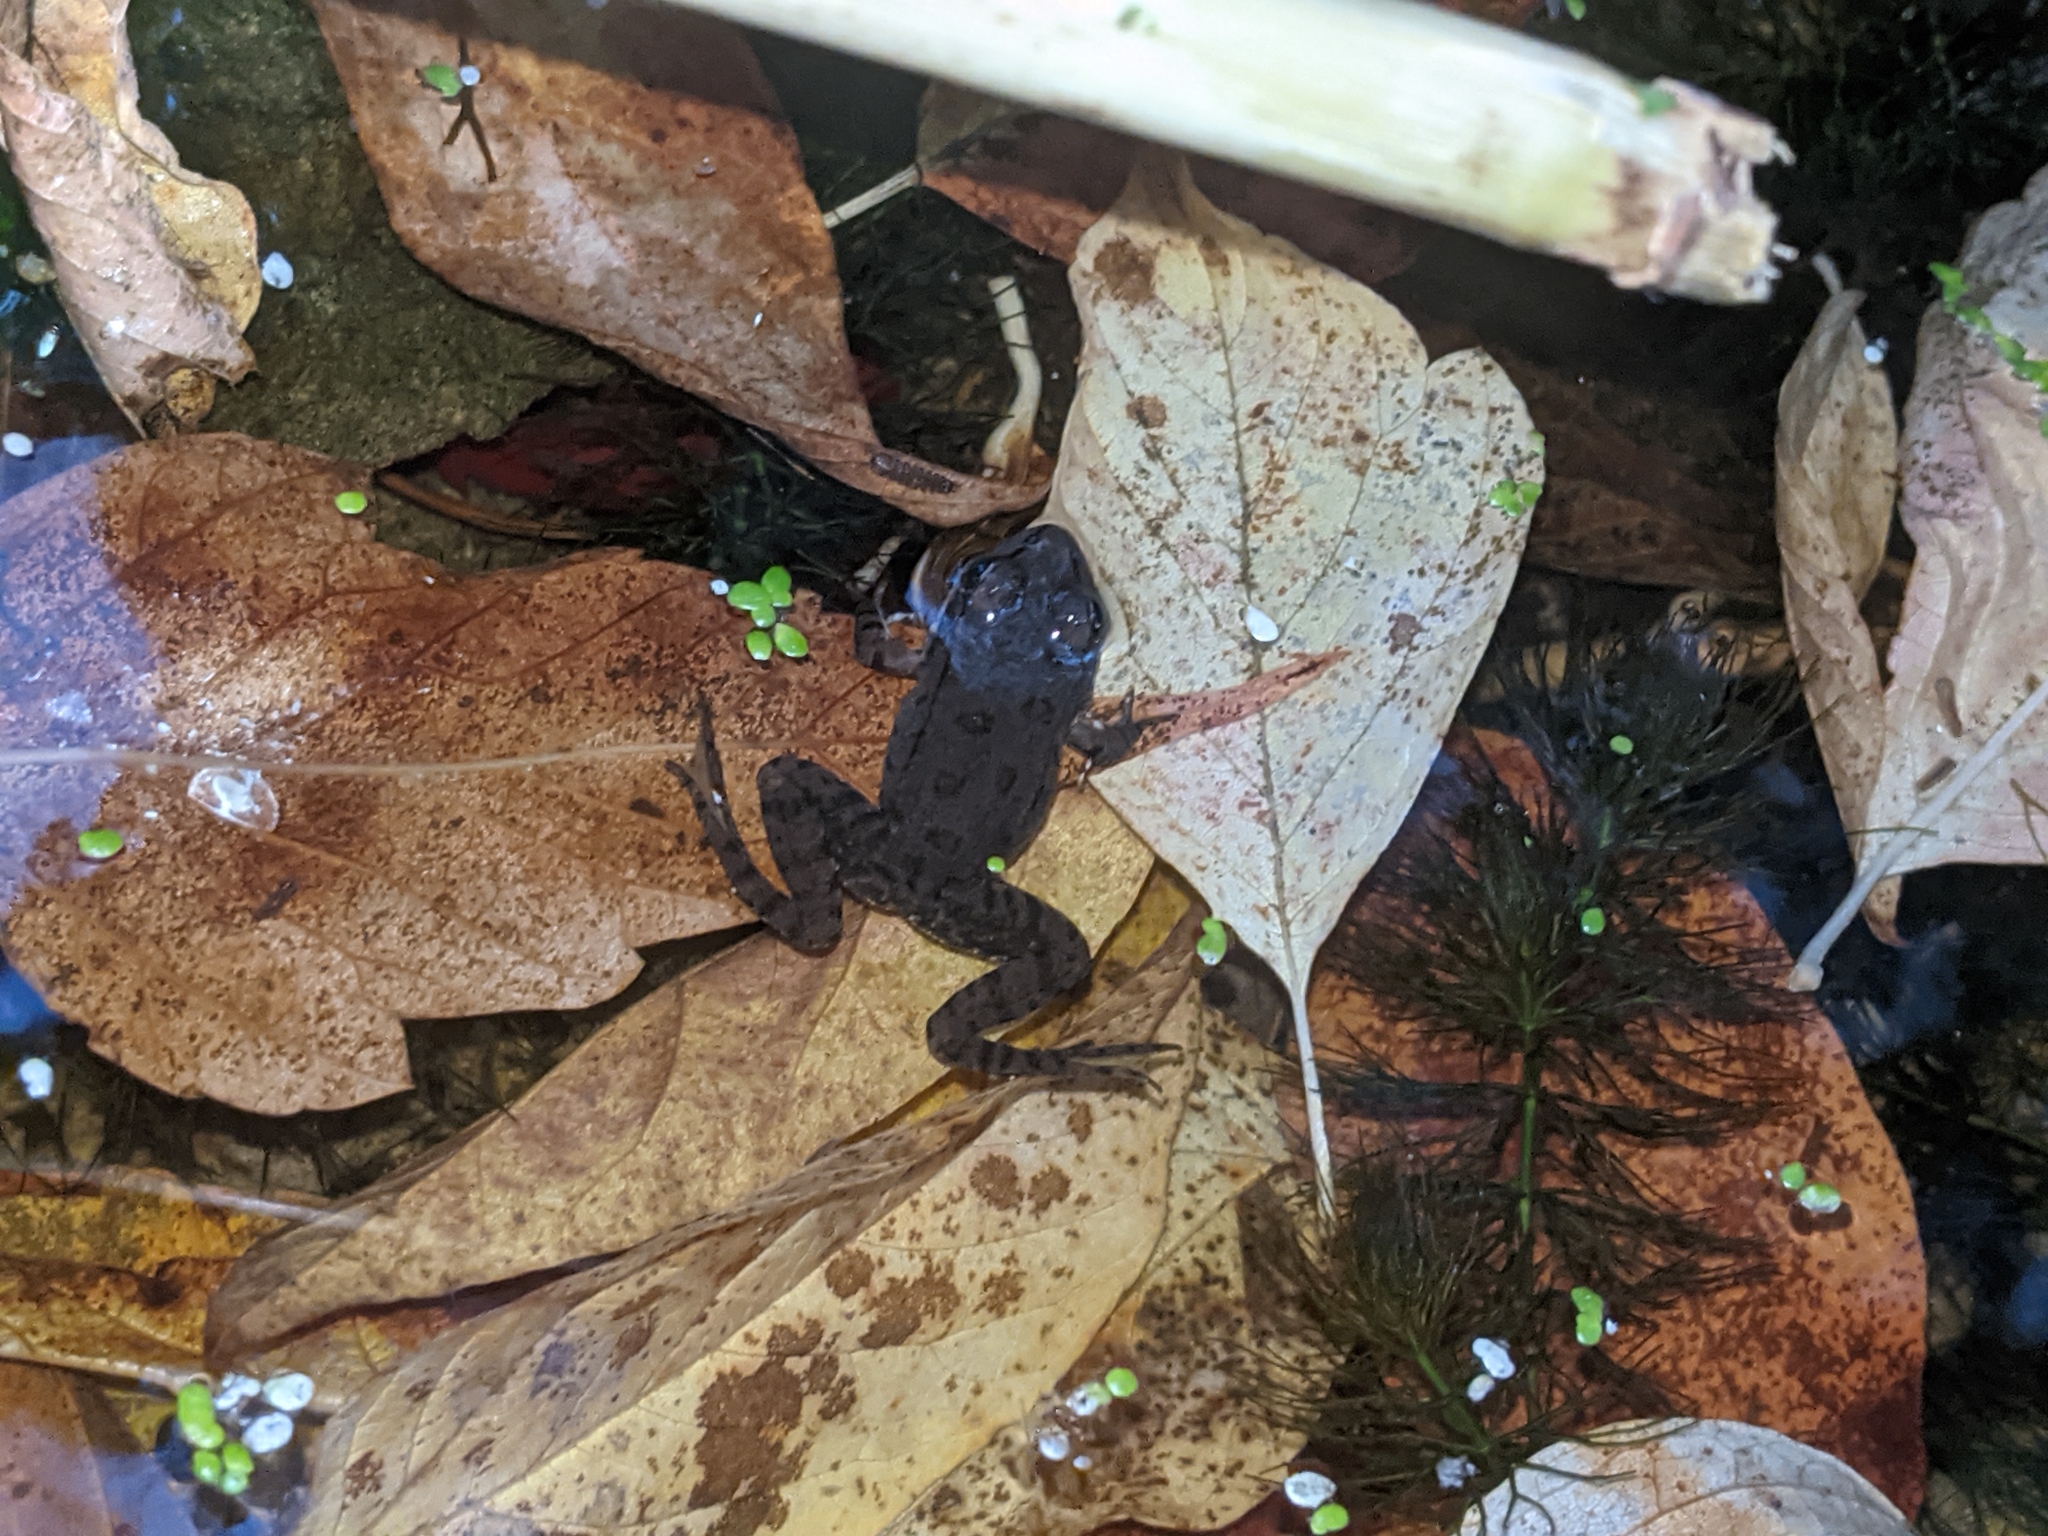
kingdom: Animalia
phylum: Chordata
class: Amphibia
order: Anura
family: Ranidae
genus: Pelophylax
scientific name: Pelophylax ridibundus
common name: Marsh frog
